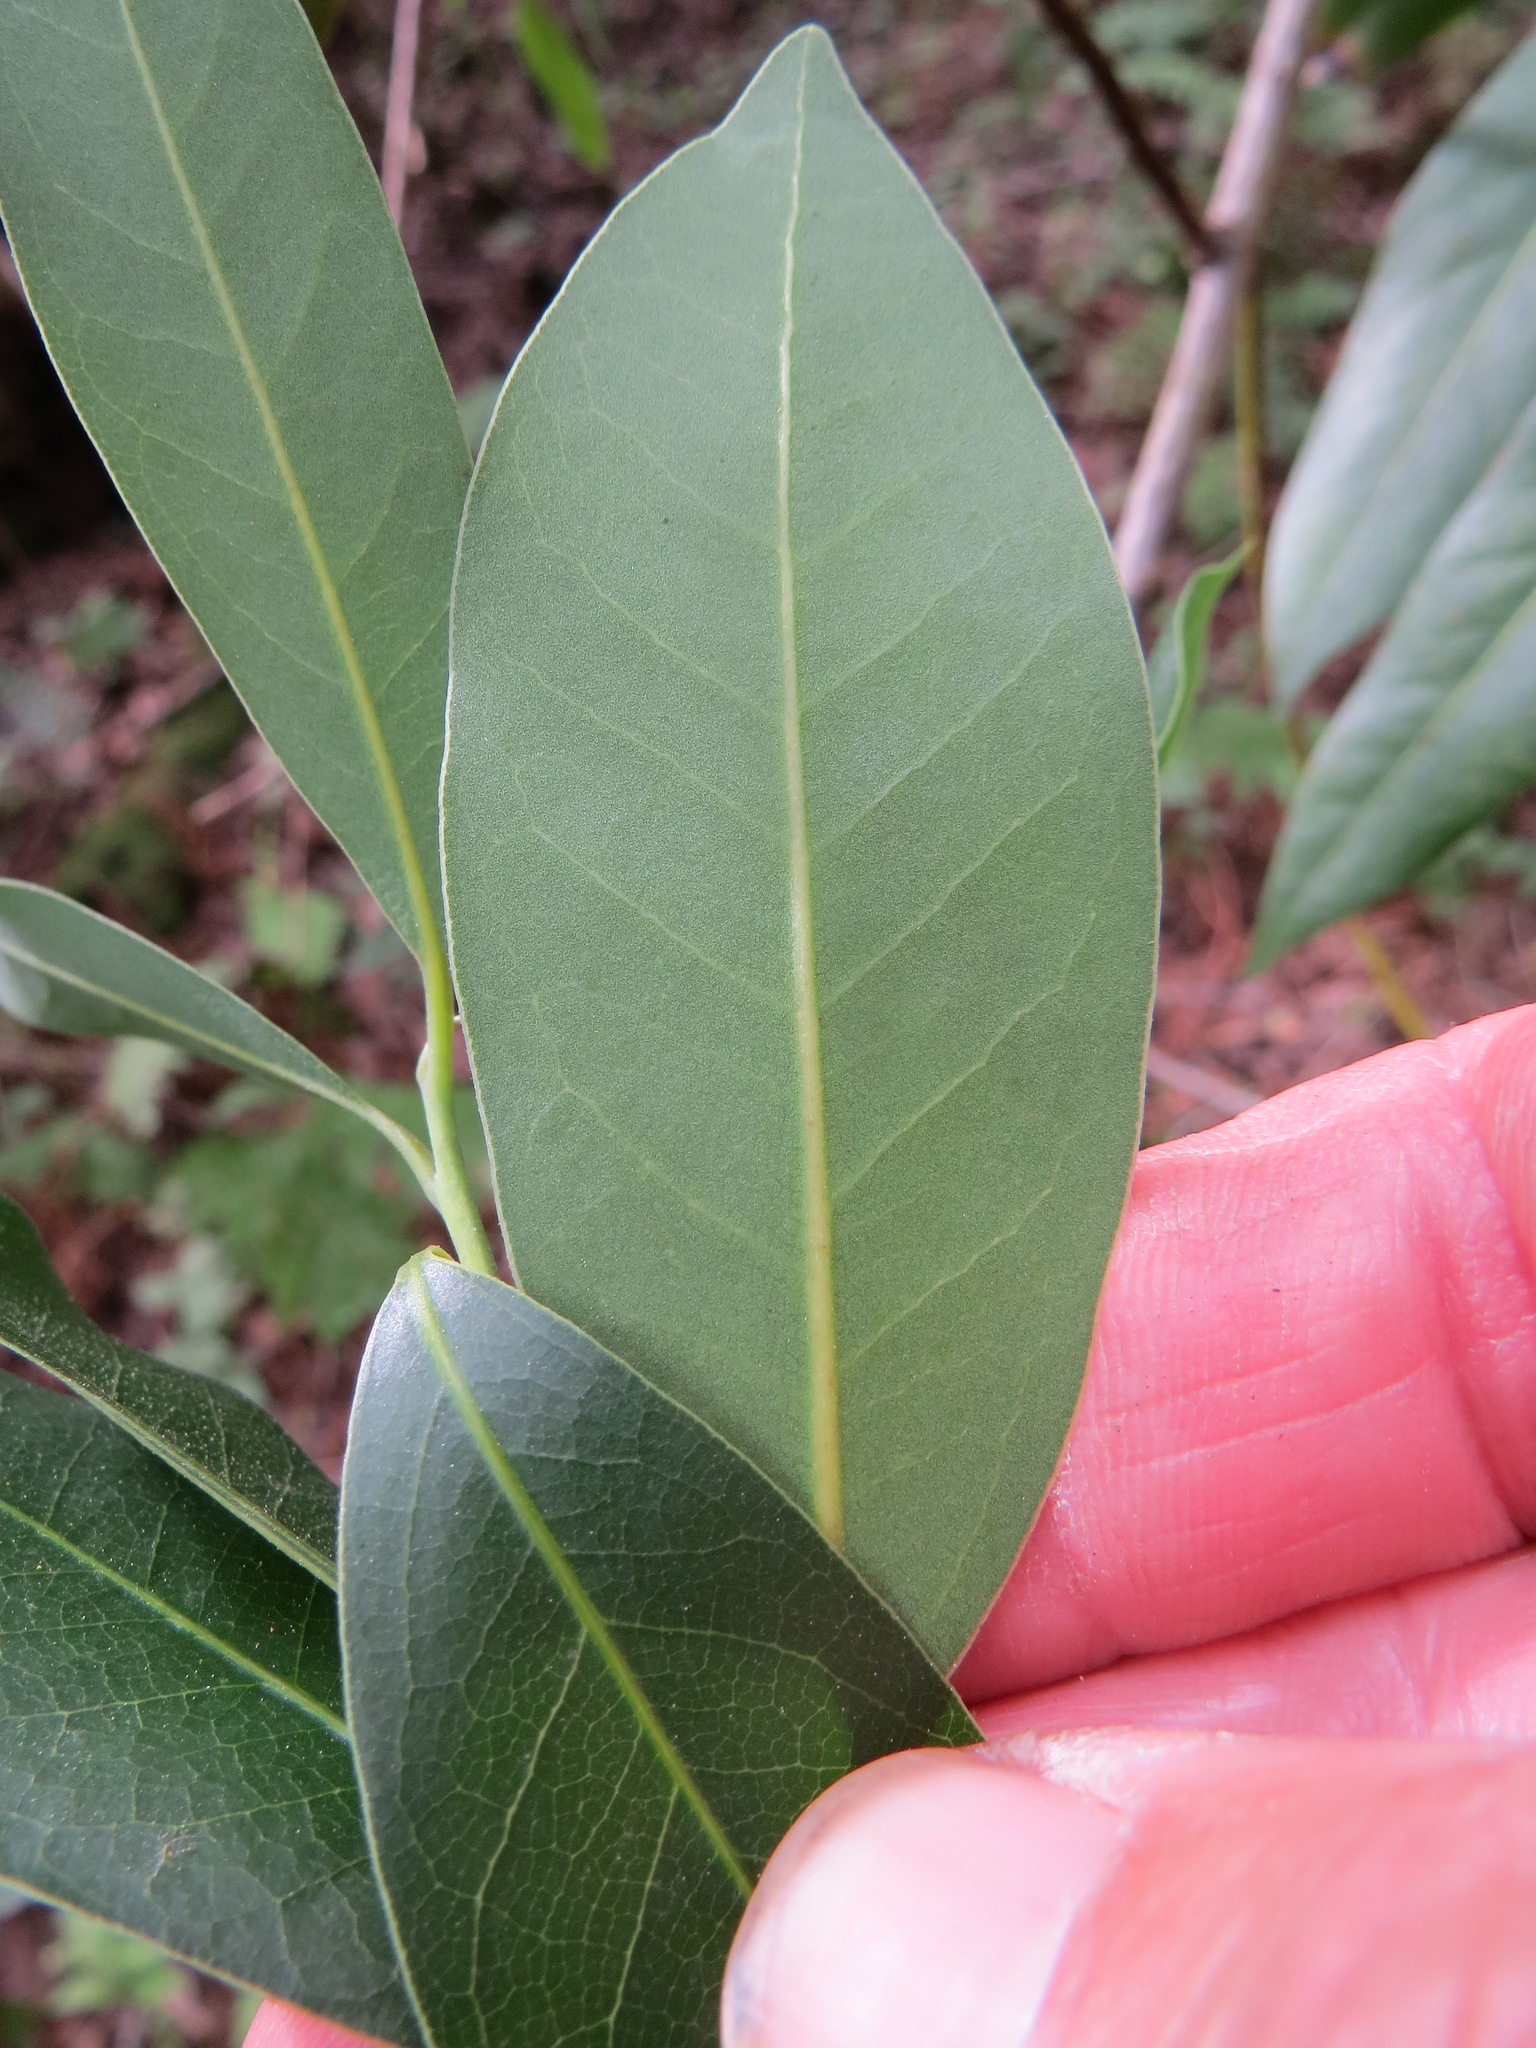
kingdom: Plantae
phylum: Tracheophyta
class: Magnoliopsida
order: Laurales
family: Lauraceae
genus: Umbellularia
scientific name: Umbellularia californica
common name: California bay
